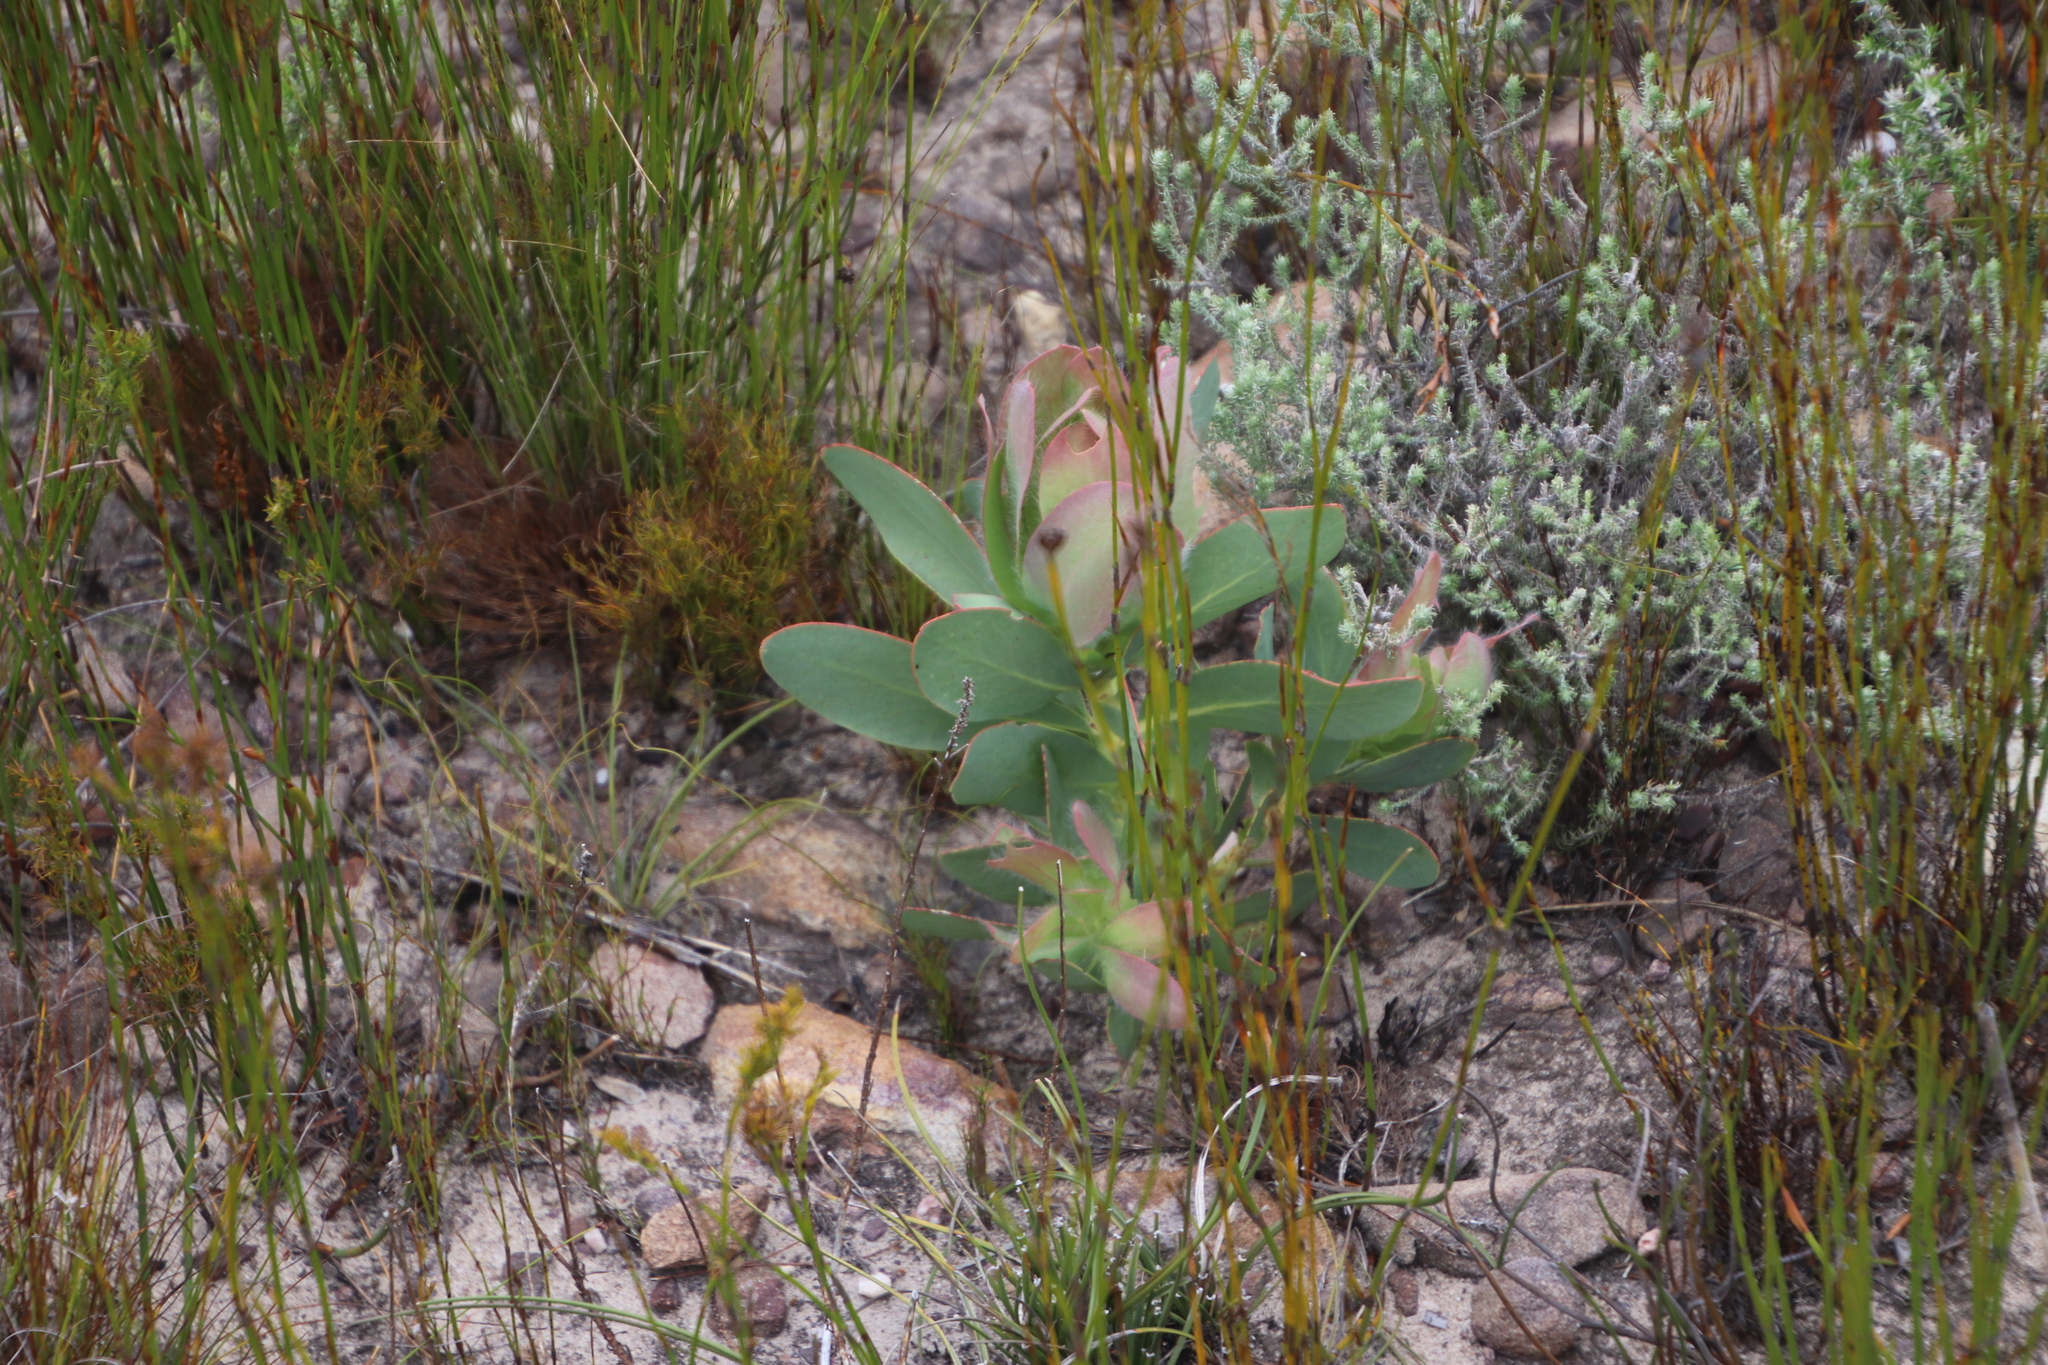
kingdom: Plantae
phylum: Tracheophyta
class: Magnoliopsida
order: Proteales
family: Proteaceae
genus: Protea
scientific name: Protea grandiceps
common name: Red sugarbush
